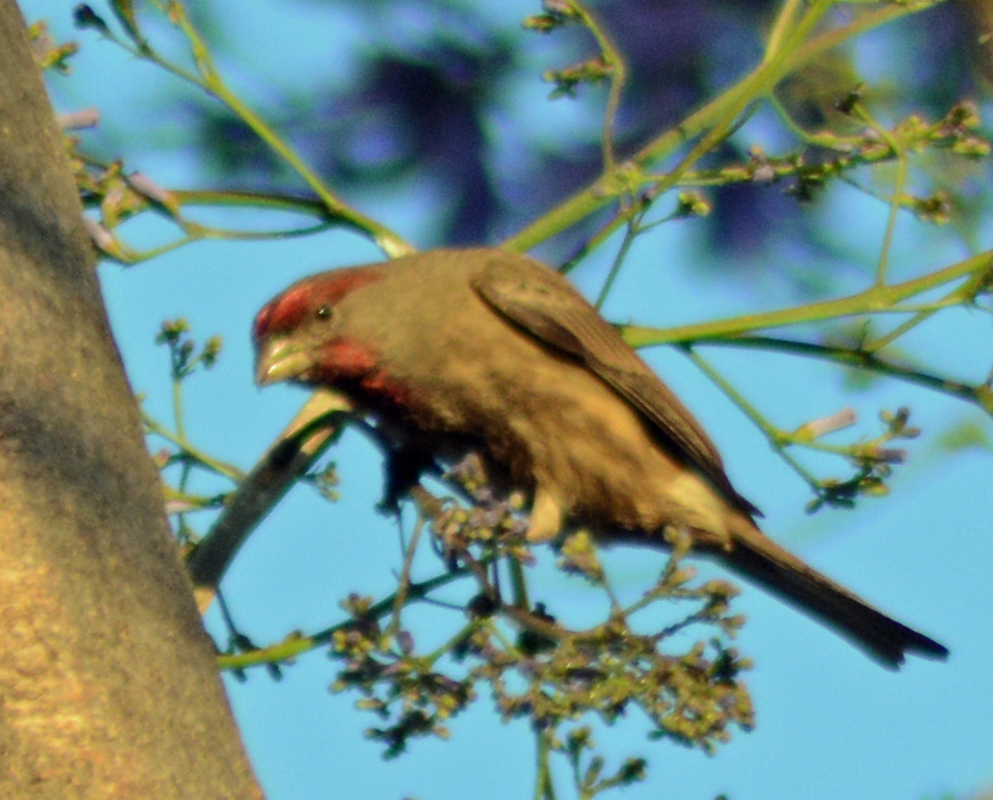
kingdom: Animalia
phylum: Chordata
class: Aves
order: Passeriformes
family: Fringillidae
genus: Haemorhous
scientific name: Haemorhous mexicanus
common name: House finch
